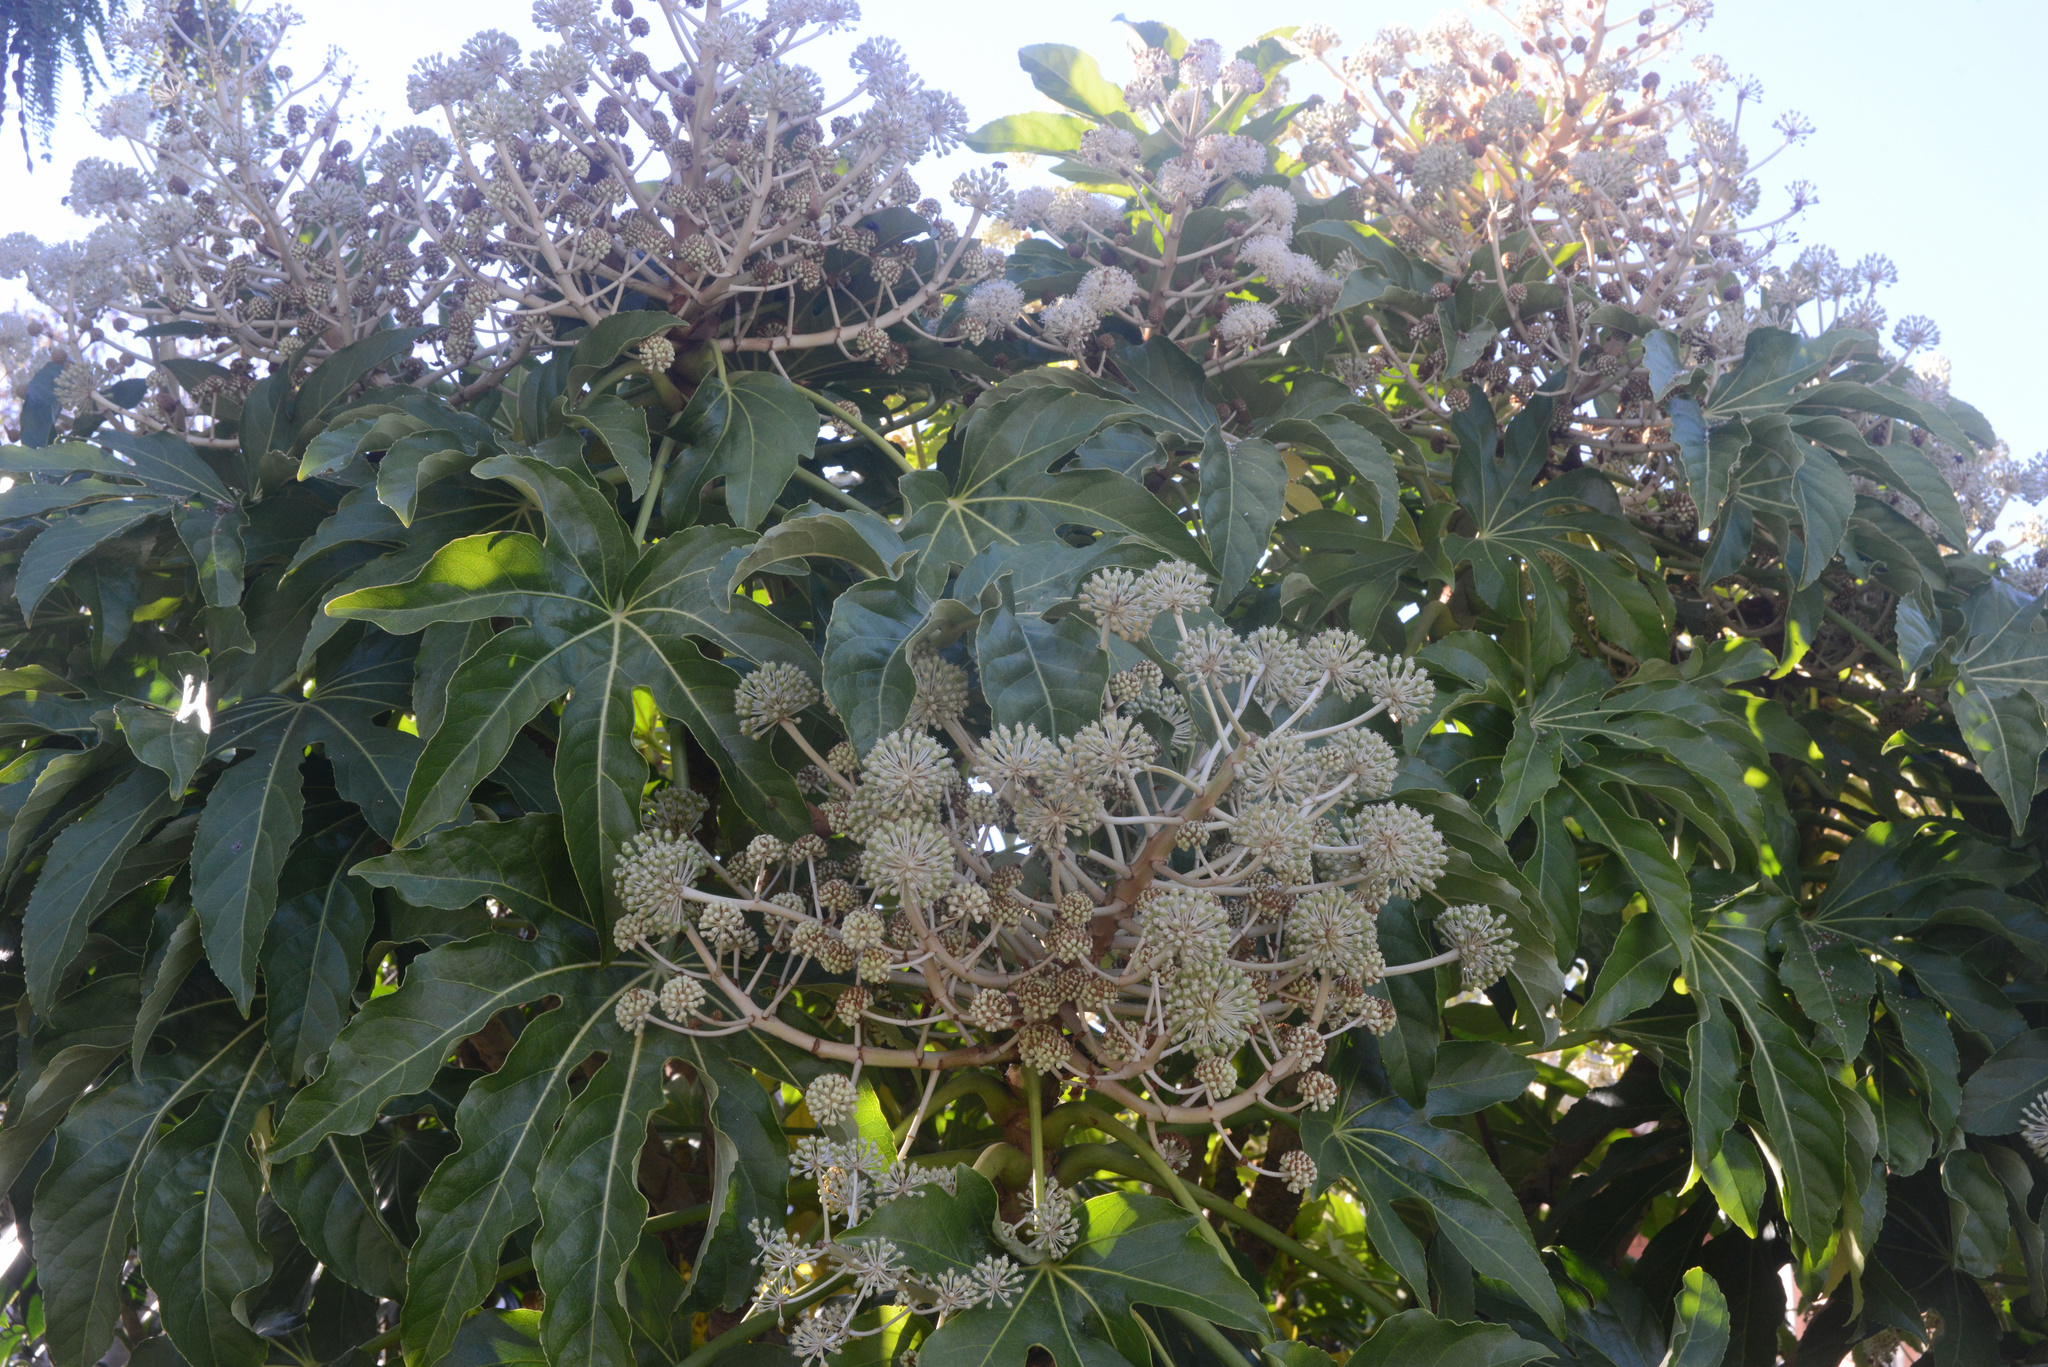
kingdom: Plantae
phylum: Tracheophyta
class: Magnoliopsida
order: Apiales
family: Araliaceae
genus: Fatsia
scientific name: Fatsia japonica
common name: Fatsia
